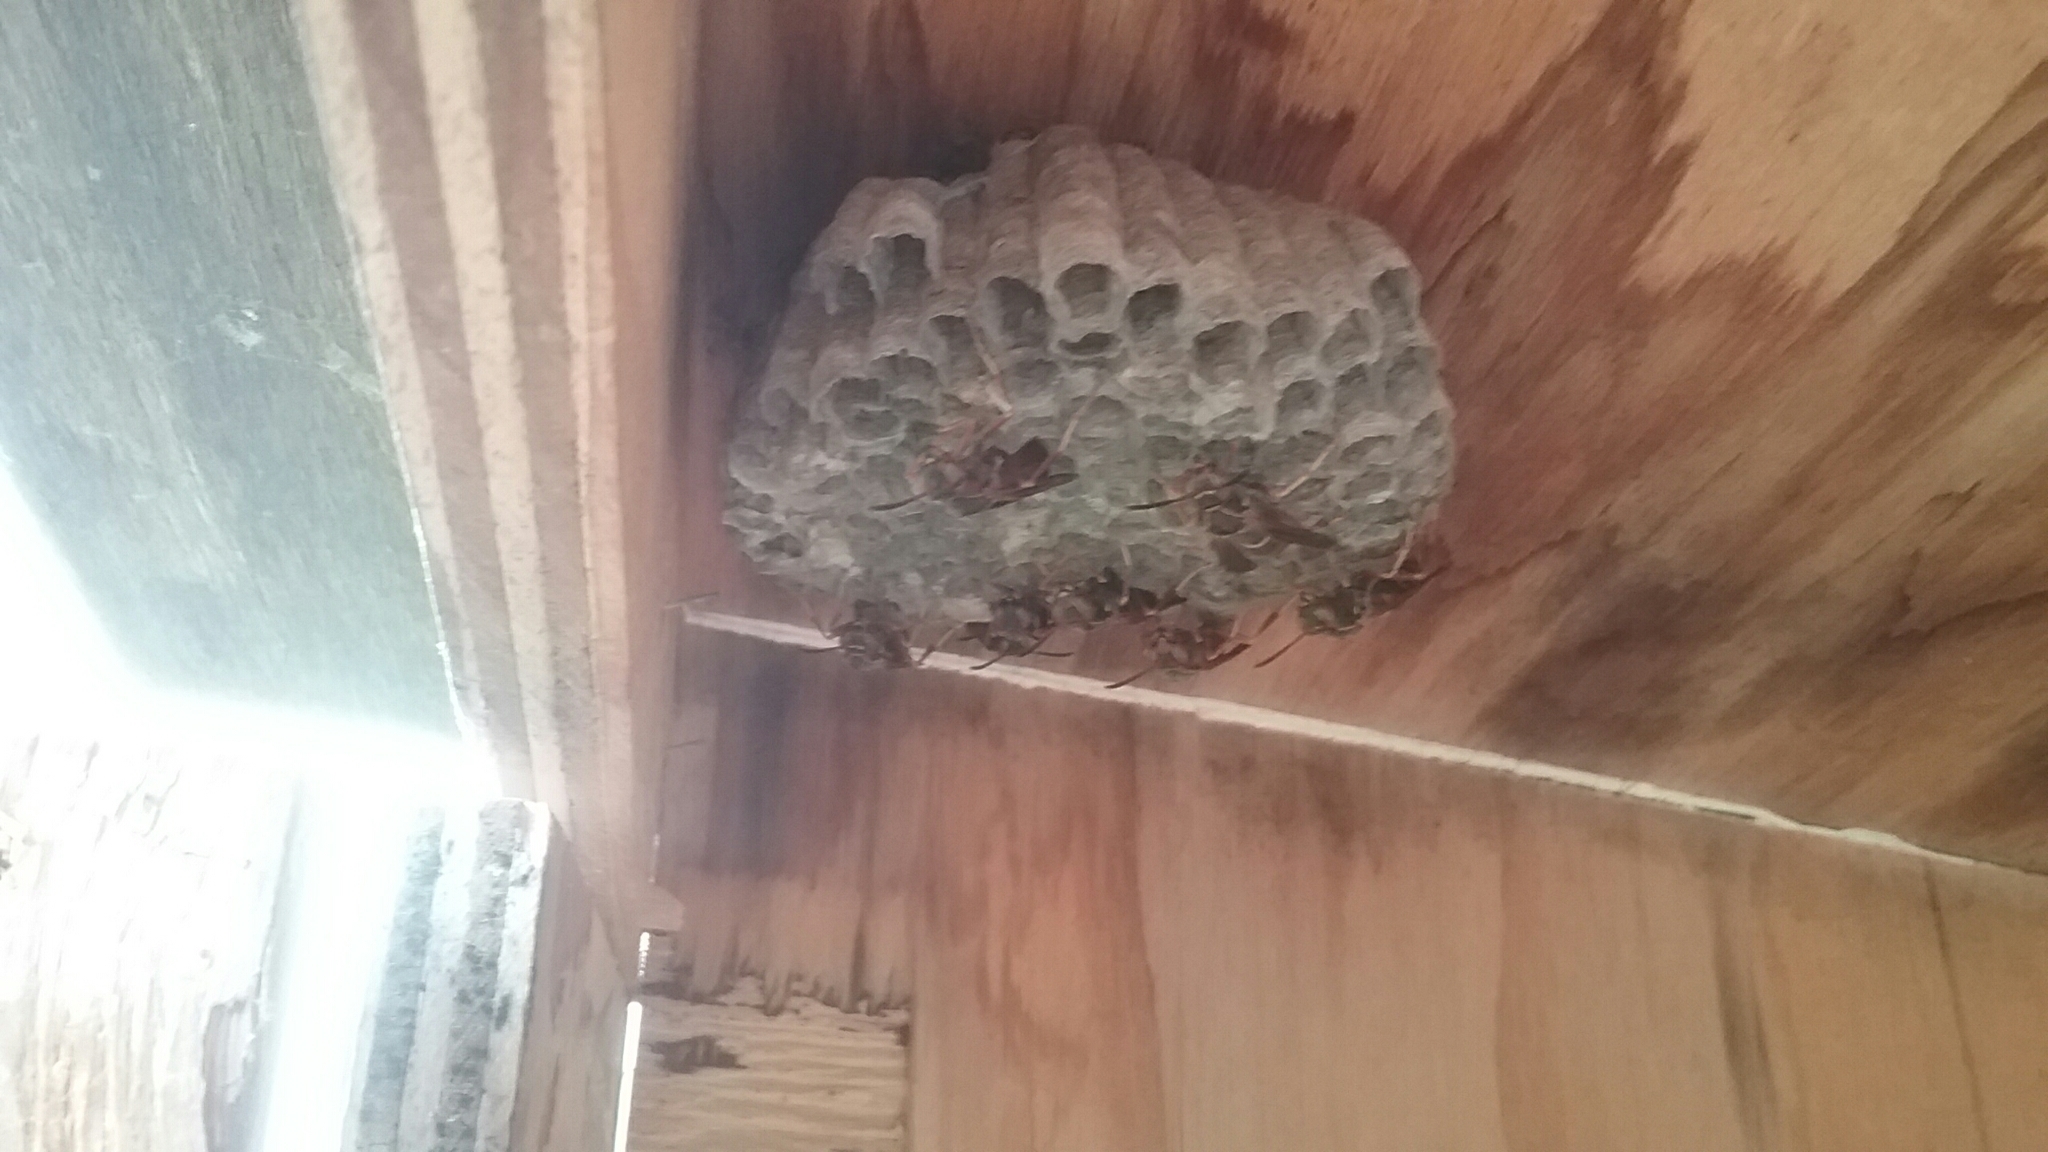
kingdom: Animalia
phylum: Arthropoda
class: Insecta
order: Hymenoptera
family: Eumenidae
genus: Polistes
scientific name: Polistes fuscatus
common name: Dark paper wasp
